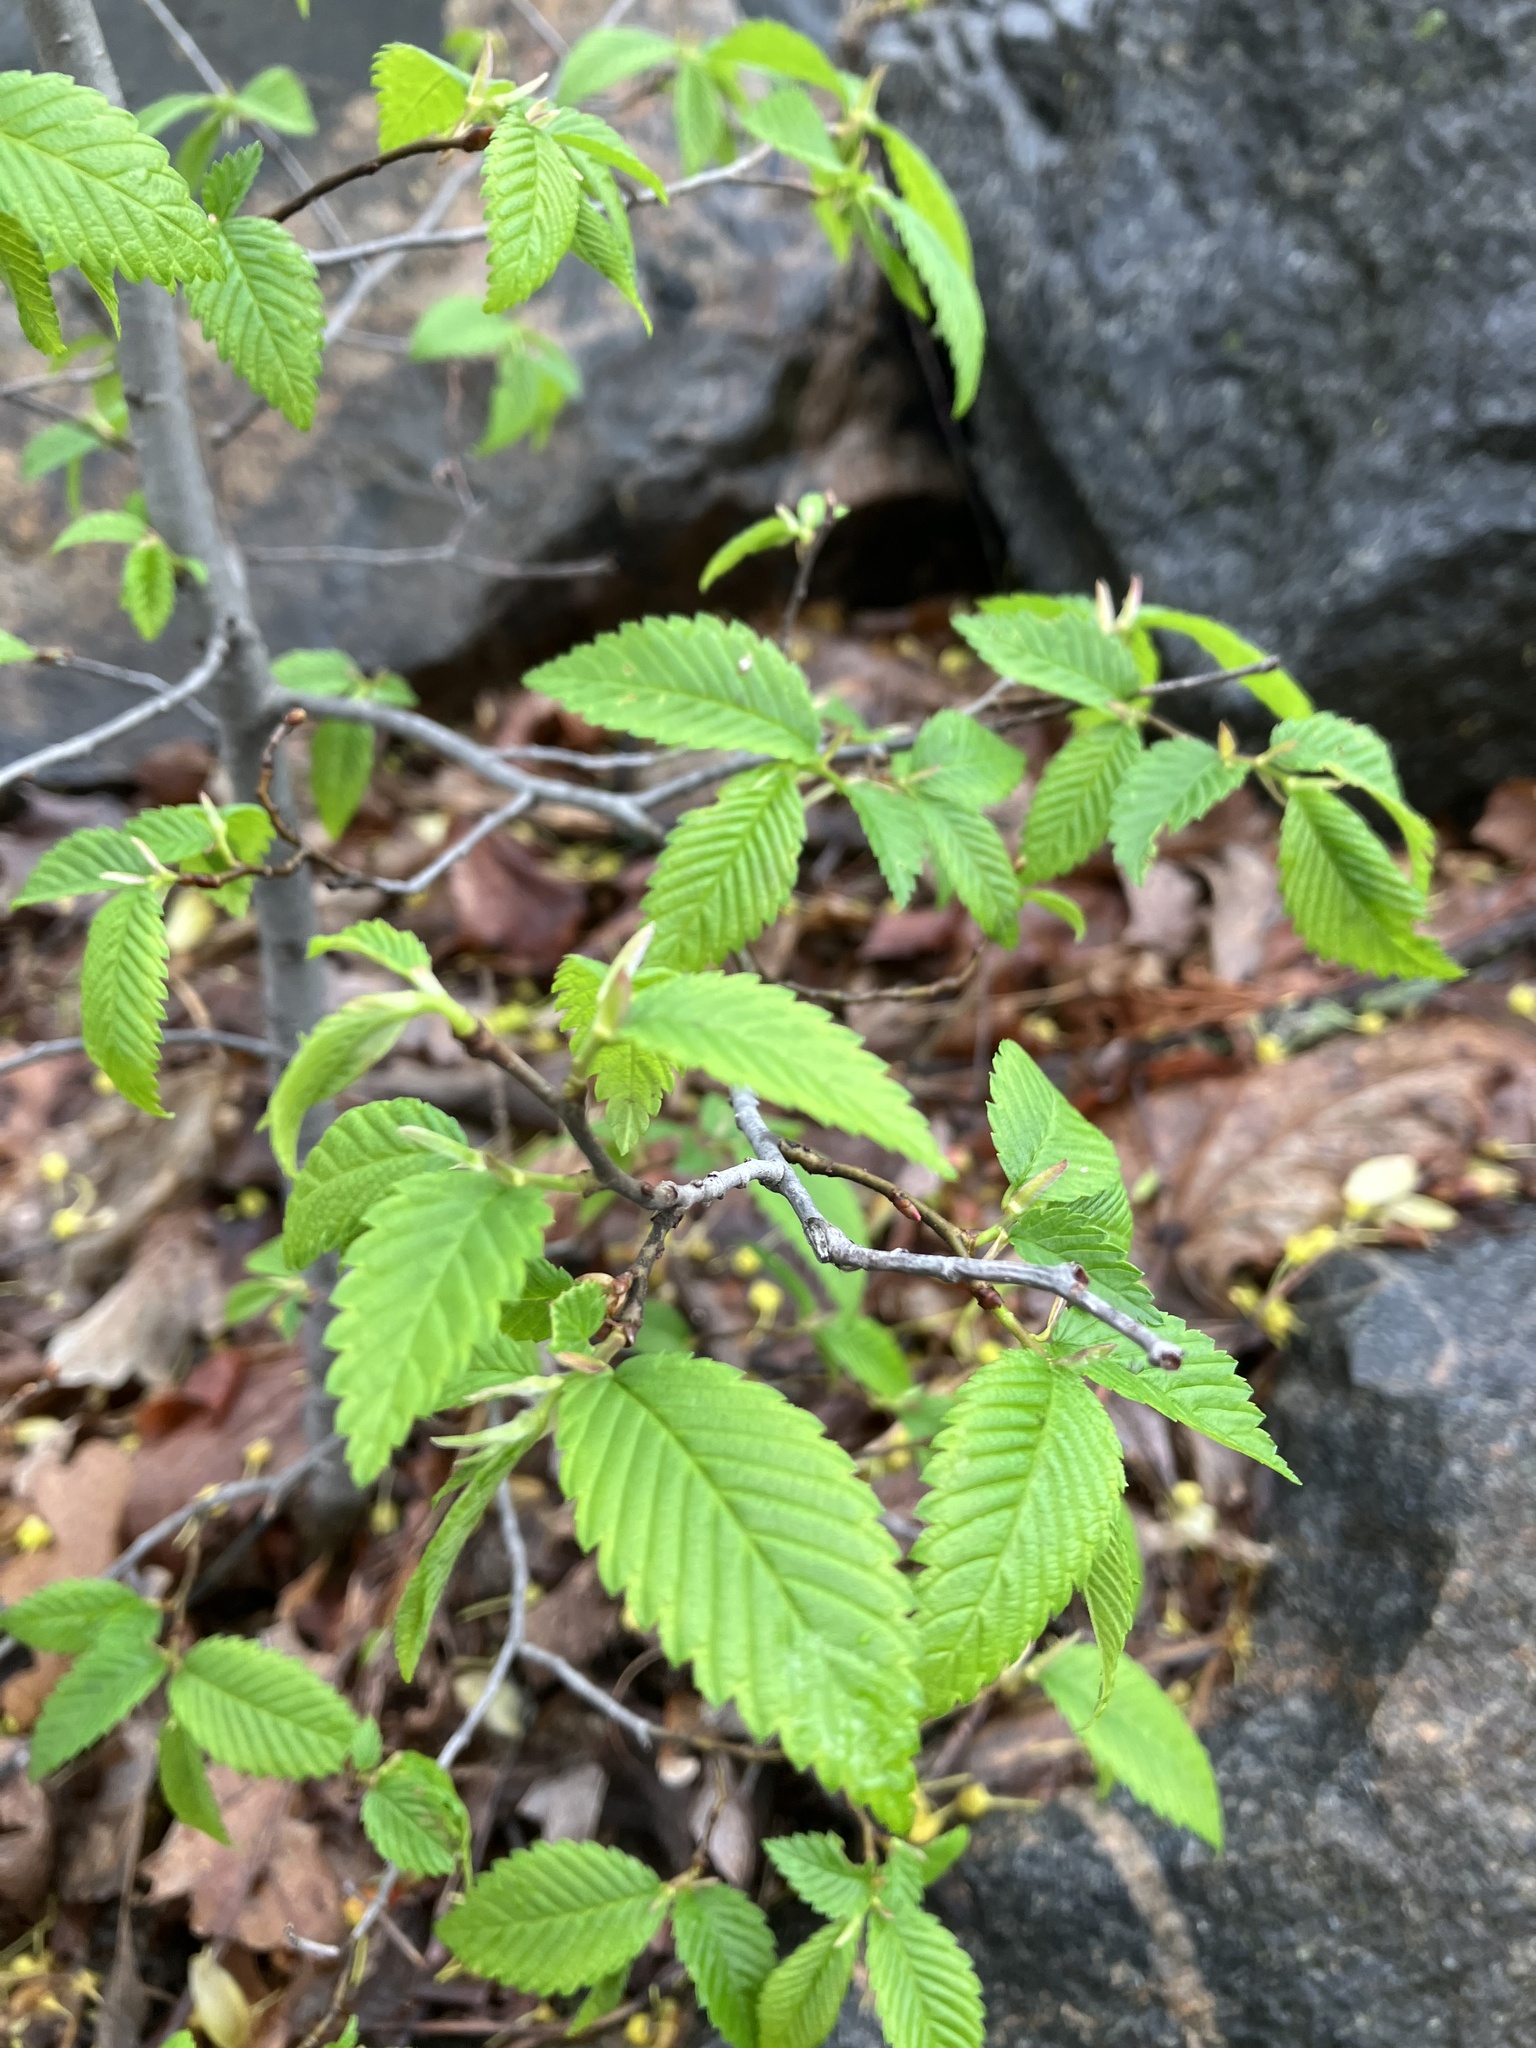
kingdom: Plantae
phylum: Tracheophyta
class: Liliopsida
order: Liliales
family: Liliaceae
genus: Erythronium
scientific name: Erythronium americanum
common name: Yellow adder's-tongue
